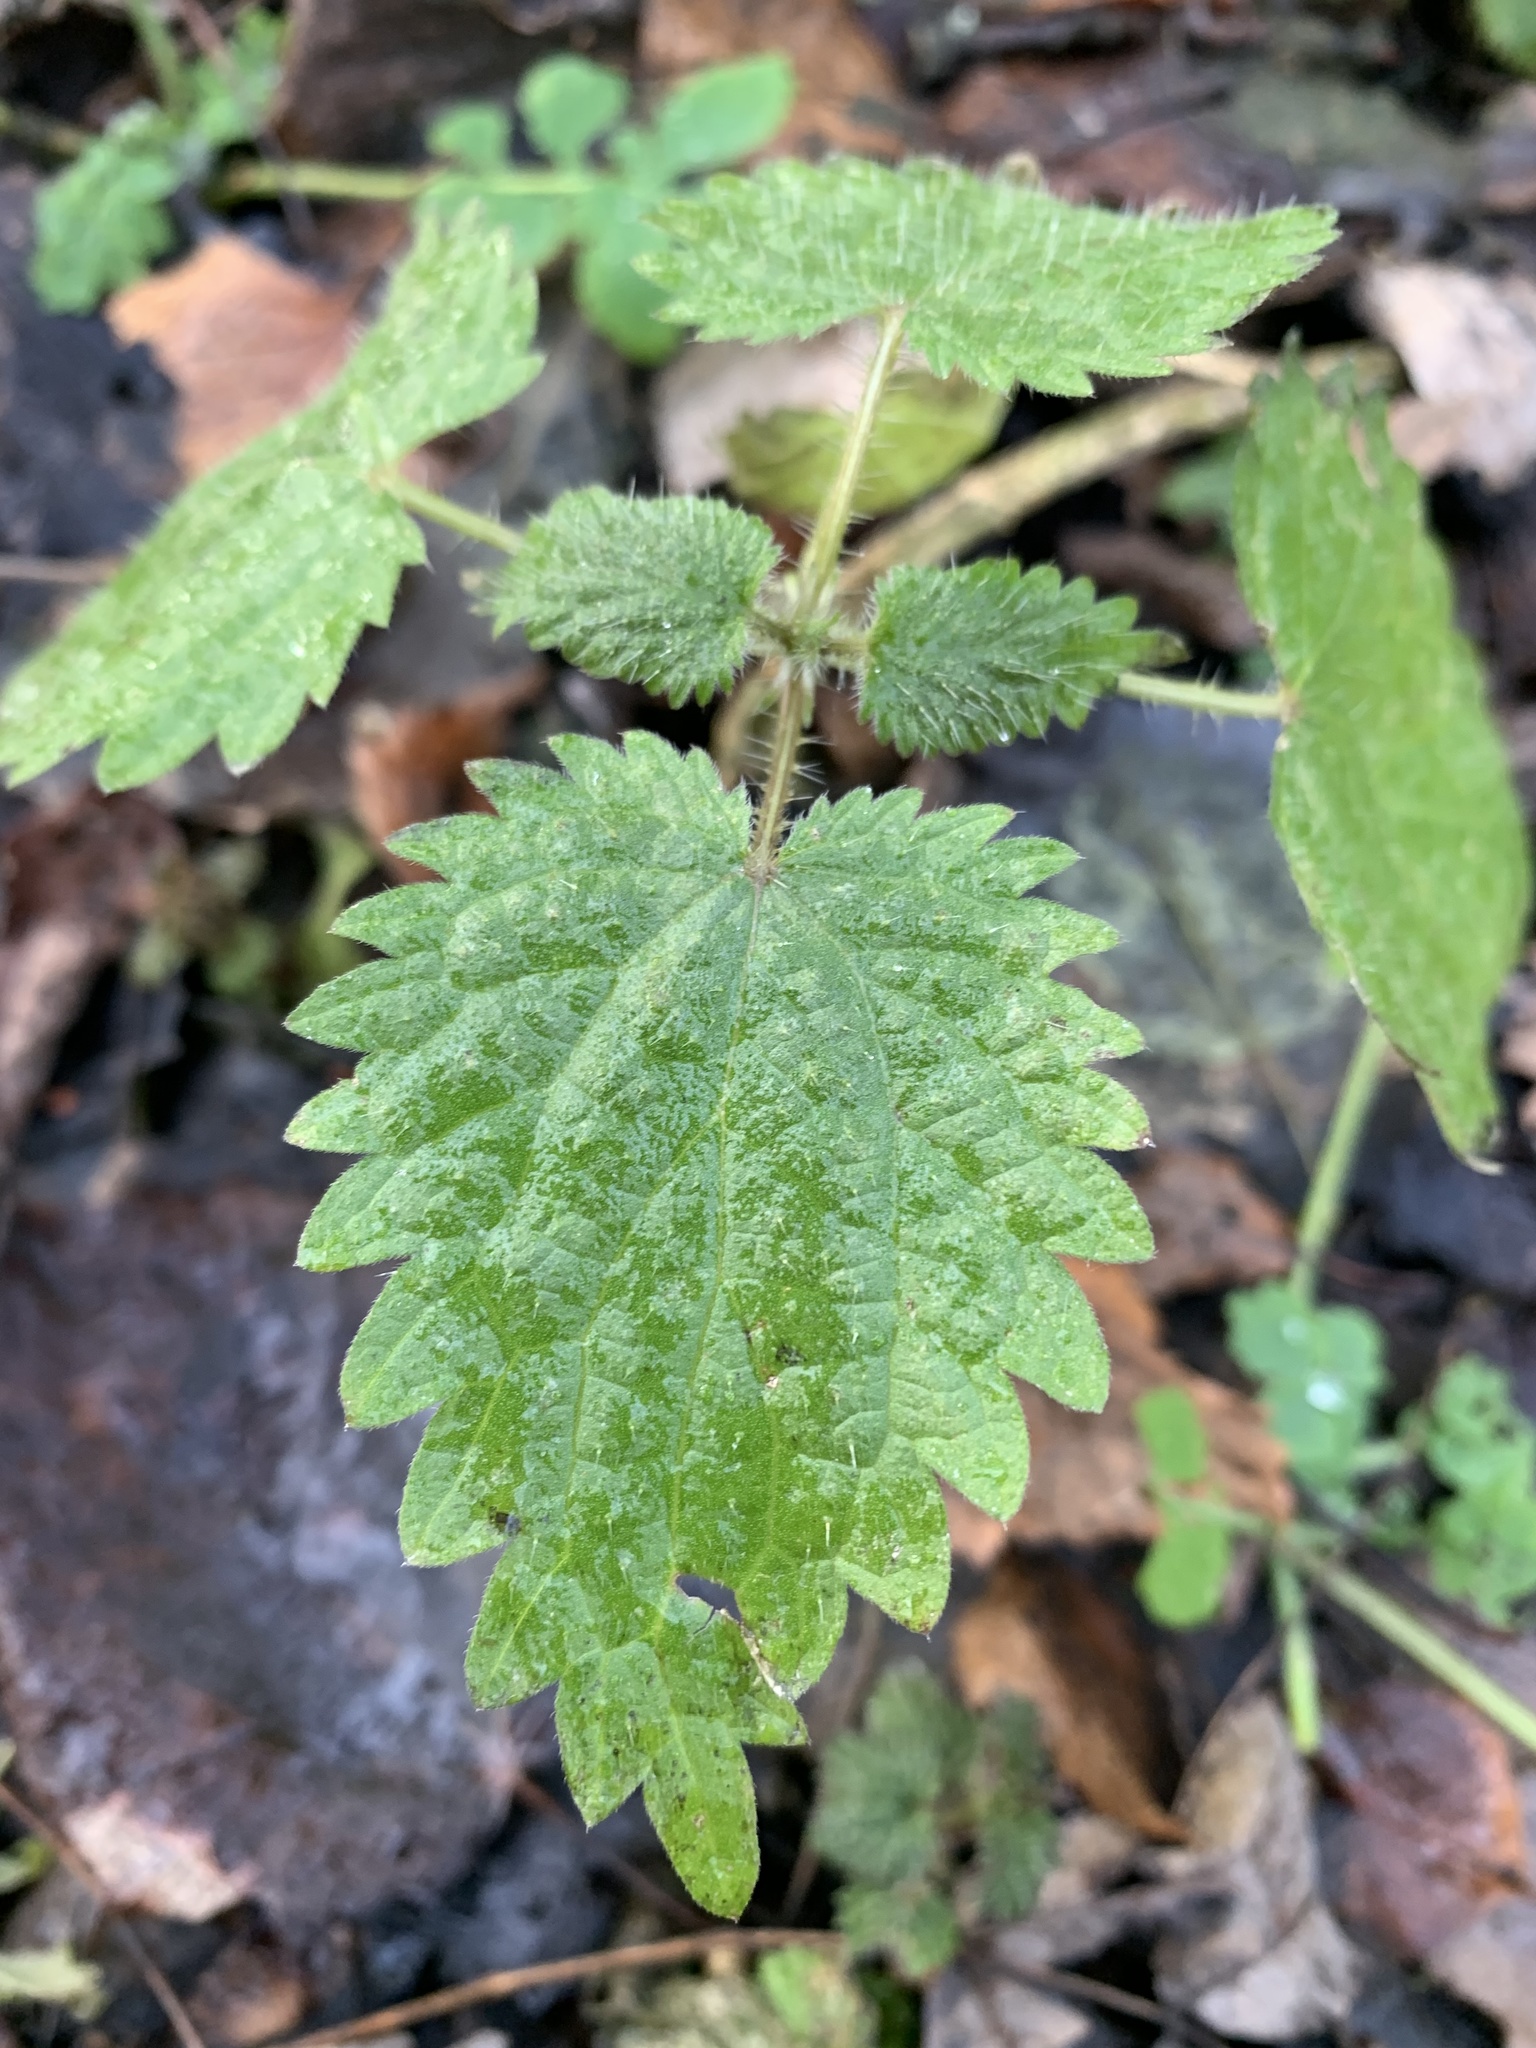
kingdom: Plantae
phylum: Tracheophyta
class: Magnoliopsida
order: Rosales
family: Urticaceae
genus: Urtica
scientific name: Urtica dioica
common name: Common nettle
